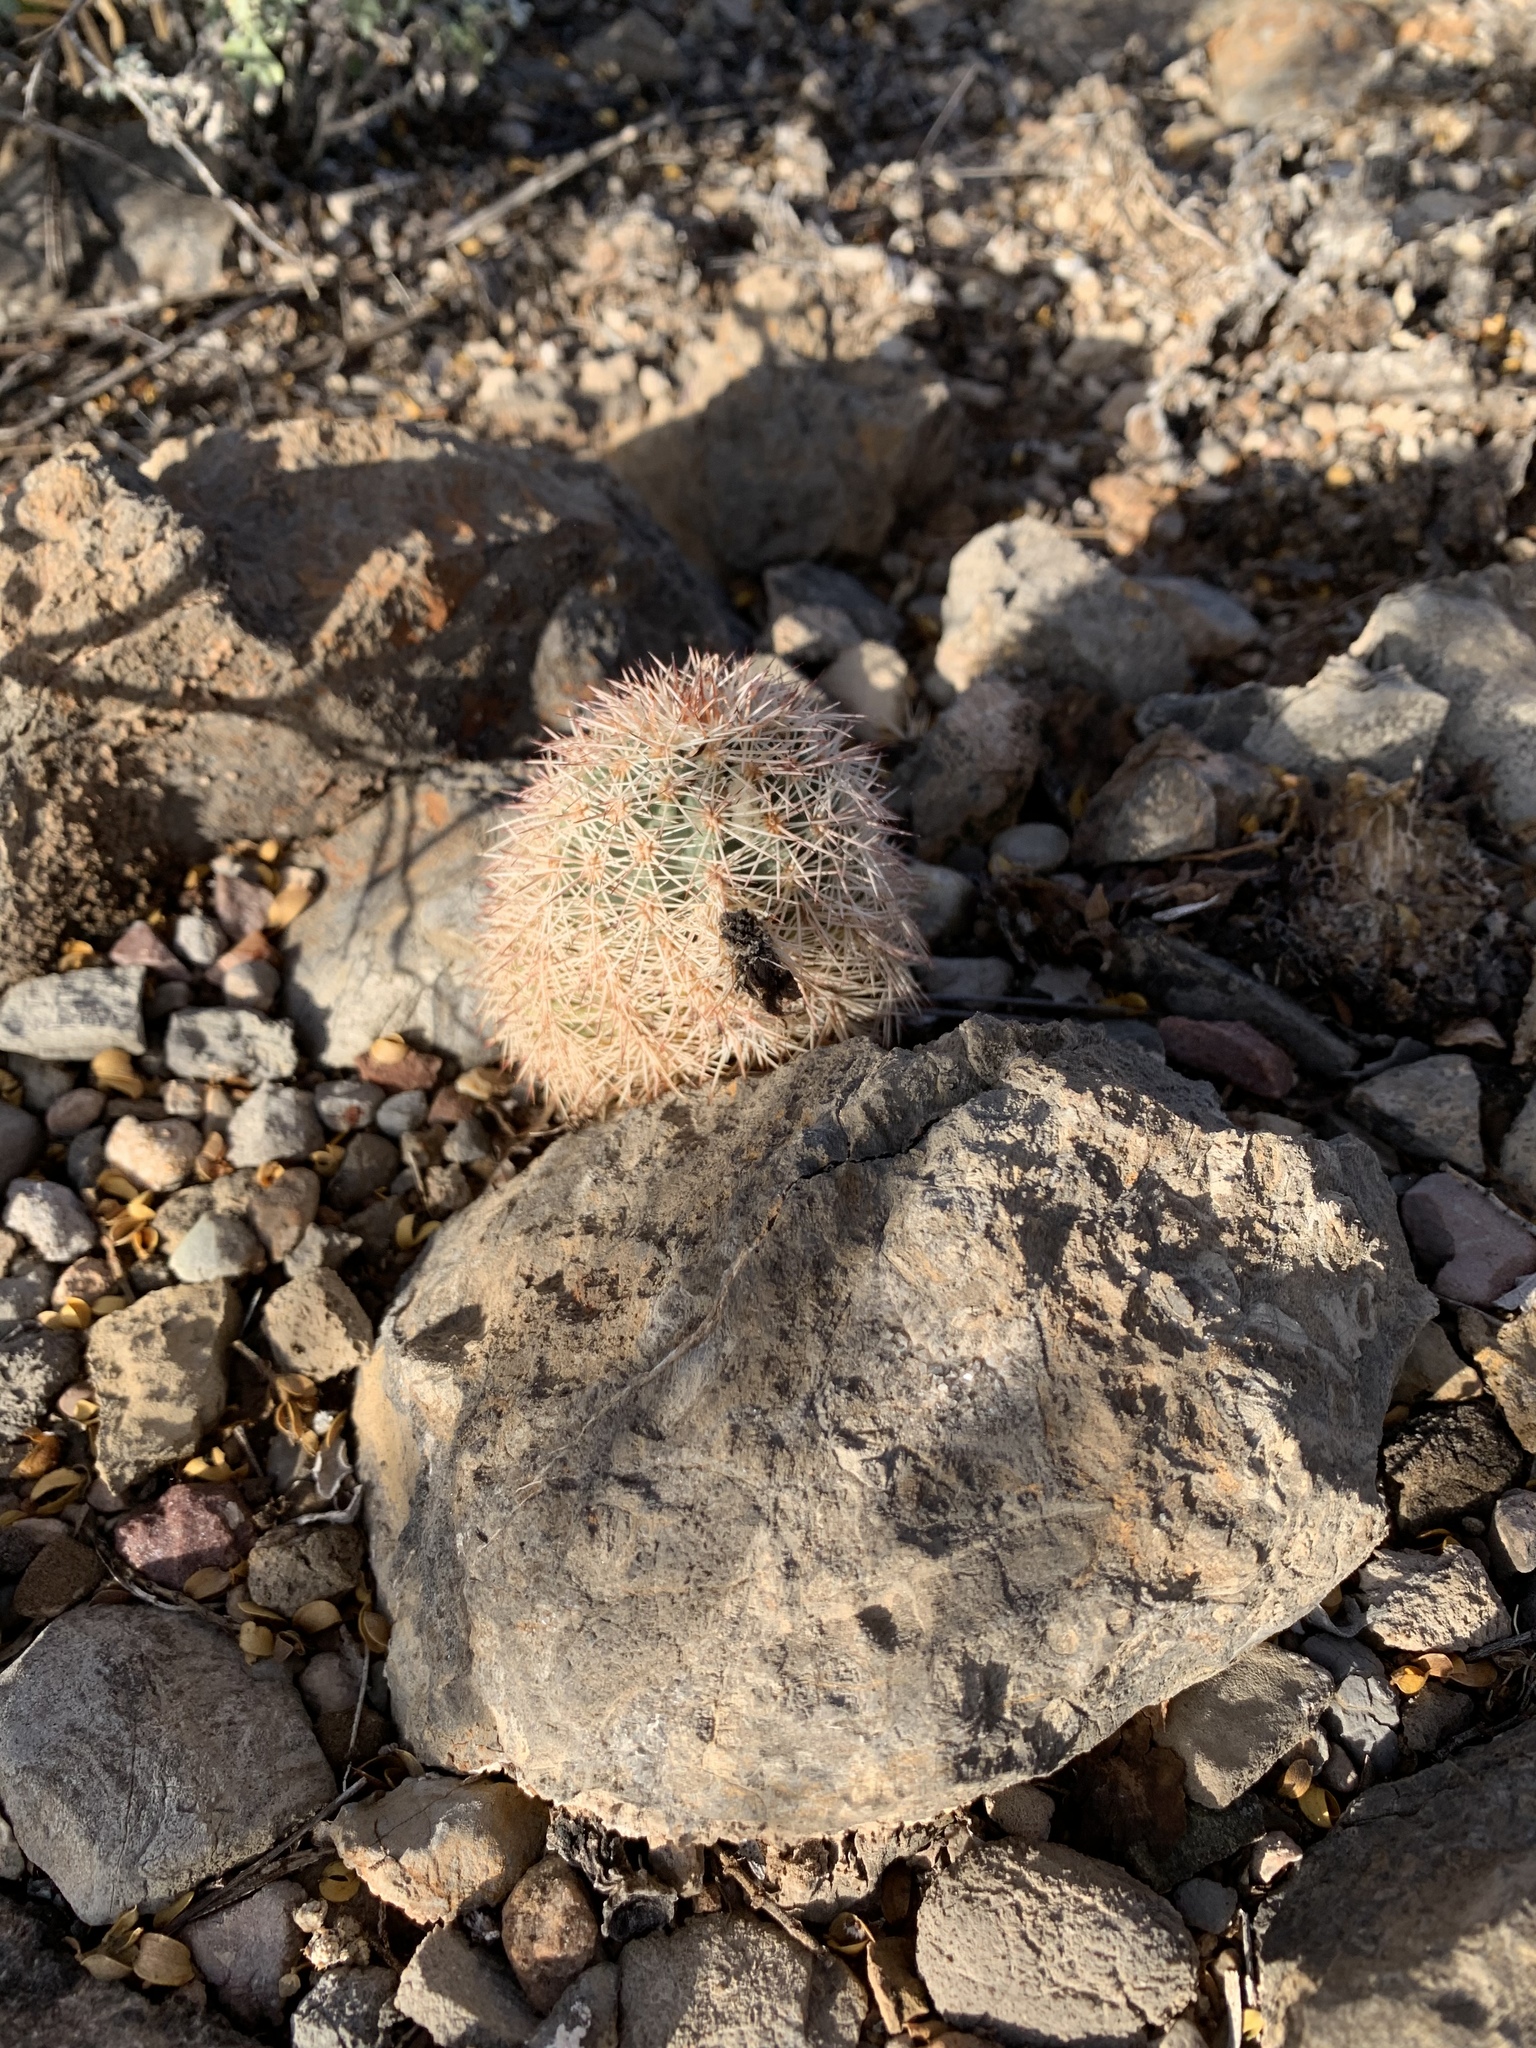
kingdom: Plantae
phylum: Tracheophyta
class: Magnoliopsida
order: Caryophyllales
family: Cactaceae
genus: Echinocereus
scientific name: Echinocereus dasyacanthus
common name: Spiny hedgehog cactus
